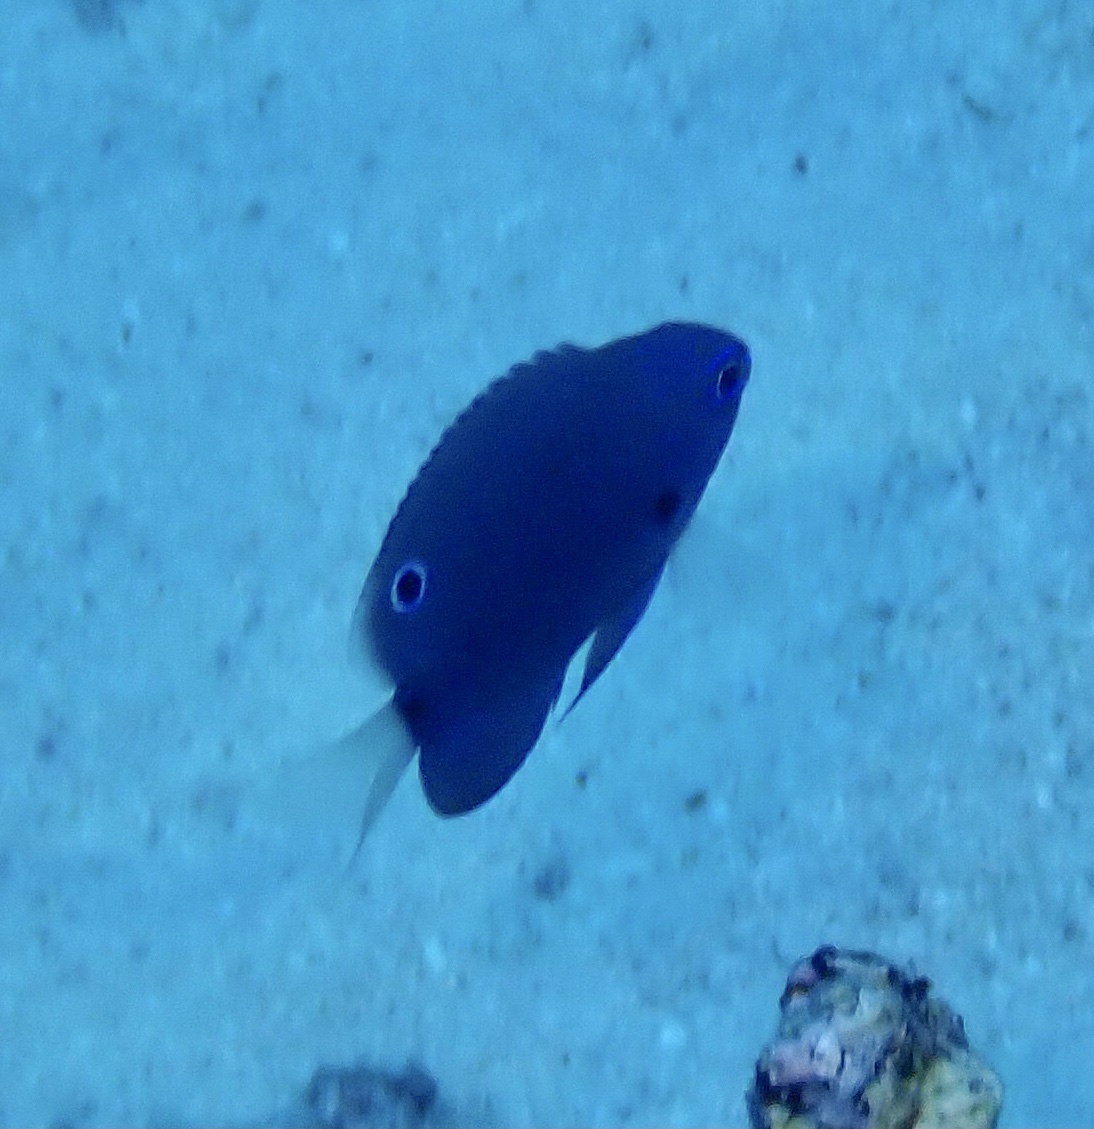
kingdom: Animalia
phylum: Chordata
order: Perciformes
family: Pomacentridae
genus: Pomacentrus
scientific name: Pomacentrus trichrourus
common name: Paletail damsel
